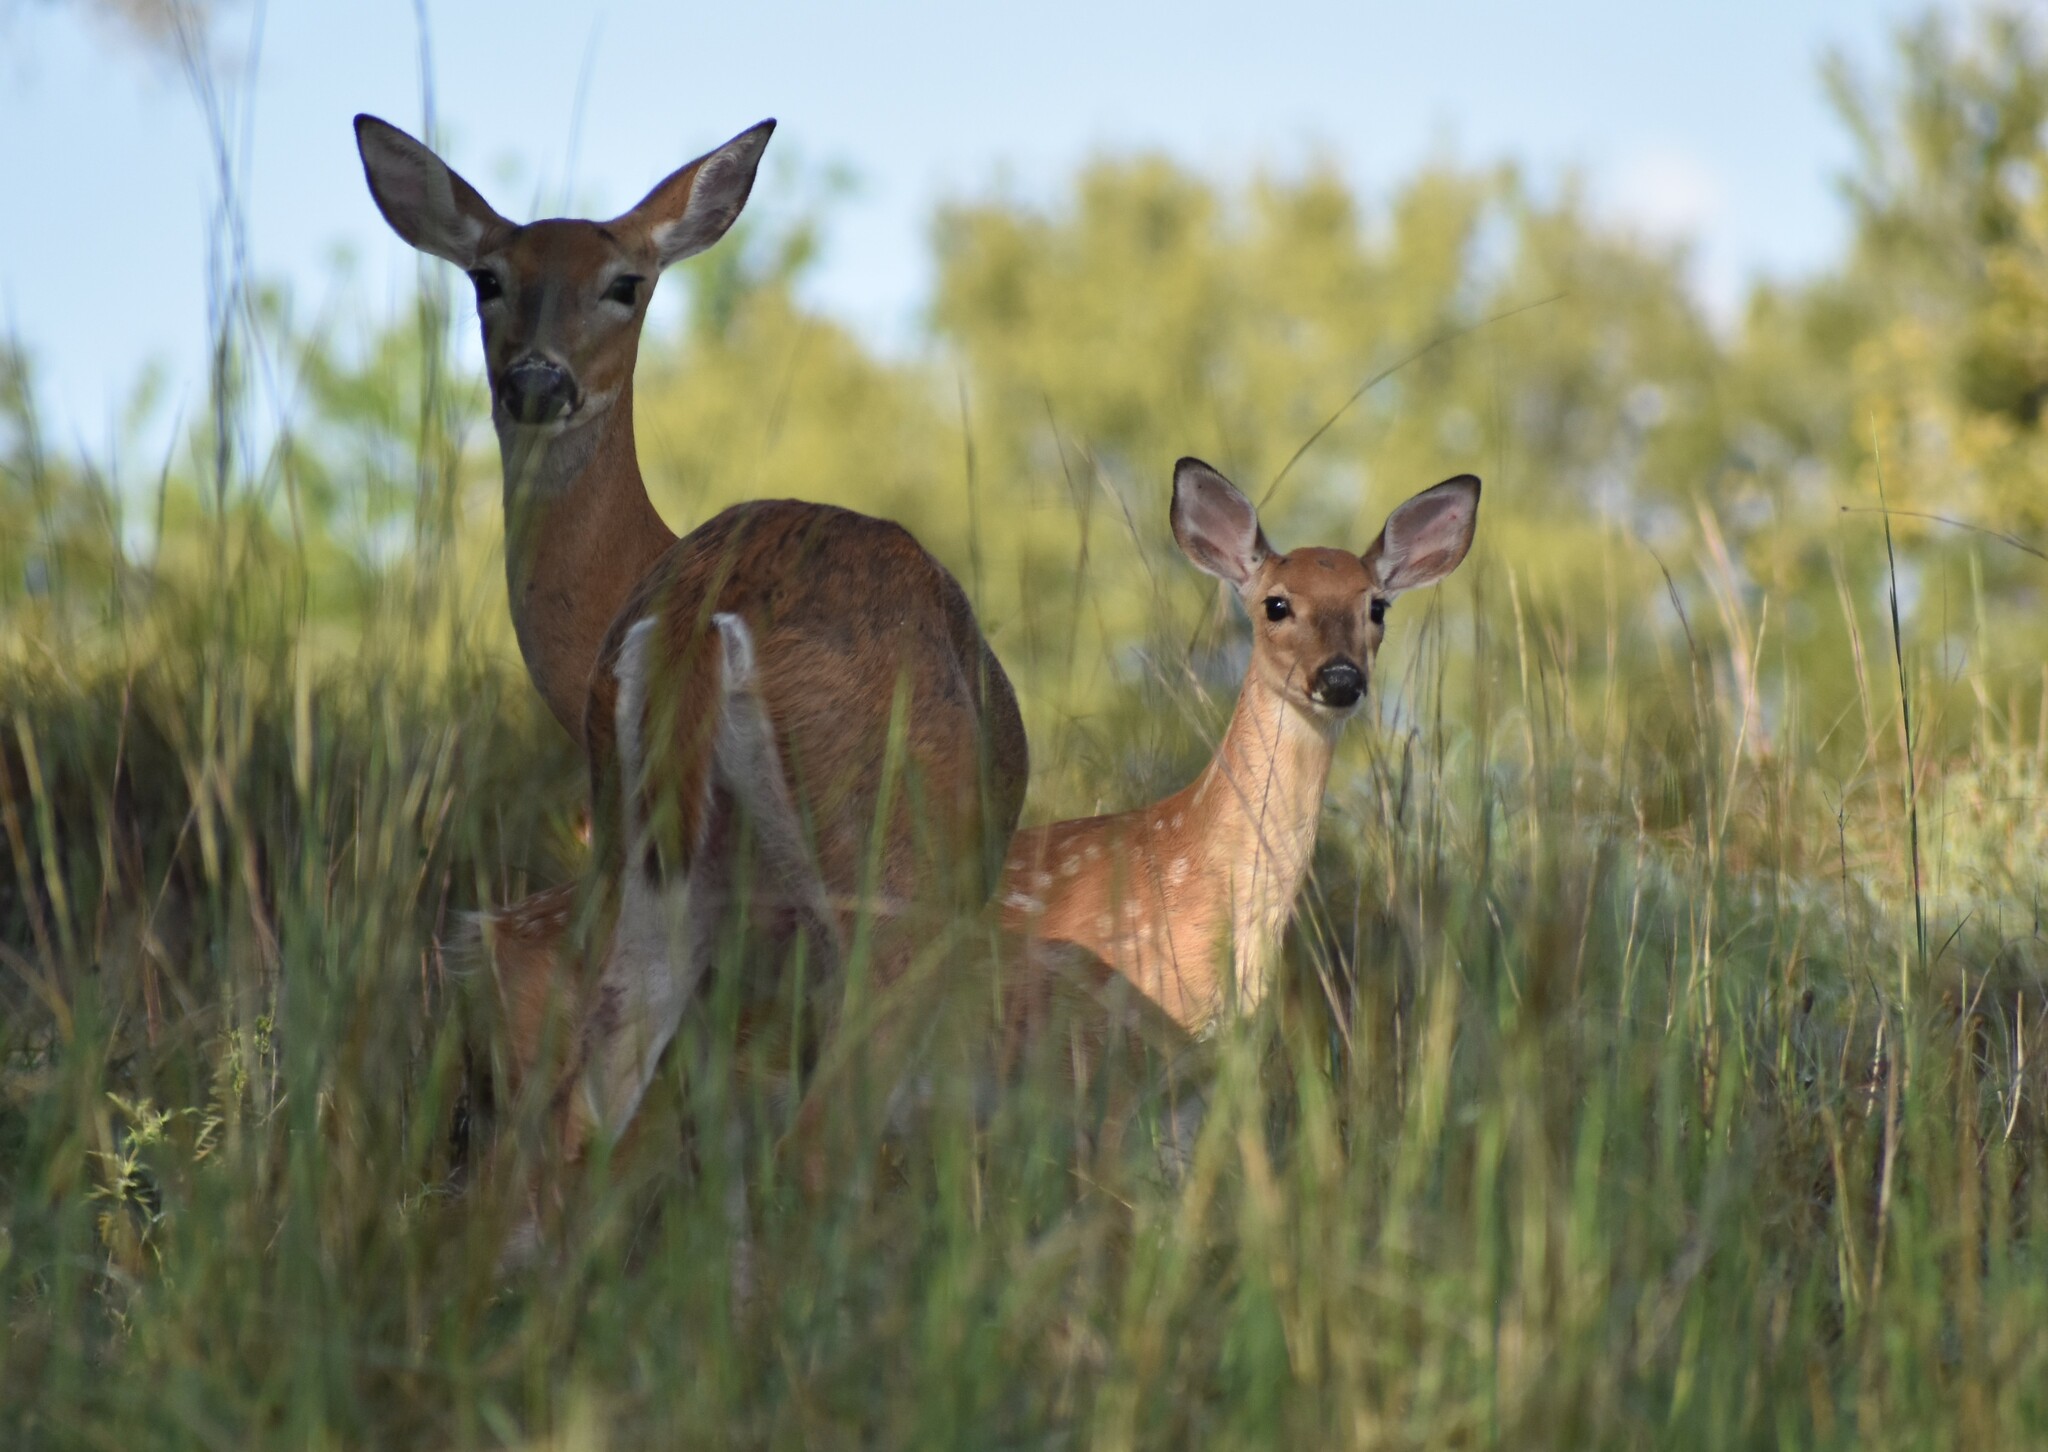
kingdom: Animalia
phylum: Chordata
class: Mammalia
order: Artiodactyla
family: Cervidae
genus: Odocoileus
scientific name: Odocoileus virginianus
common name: White-tailed deer
